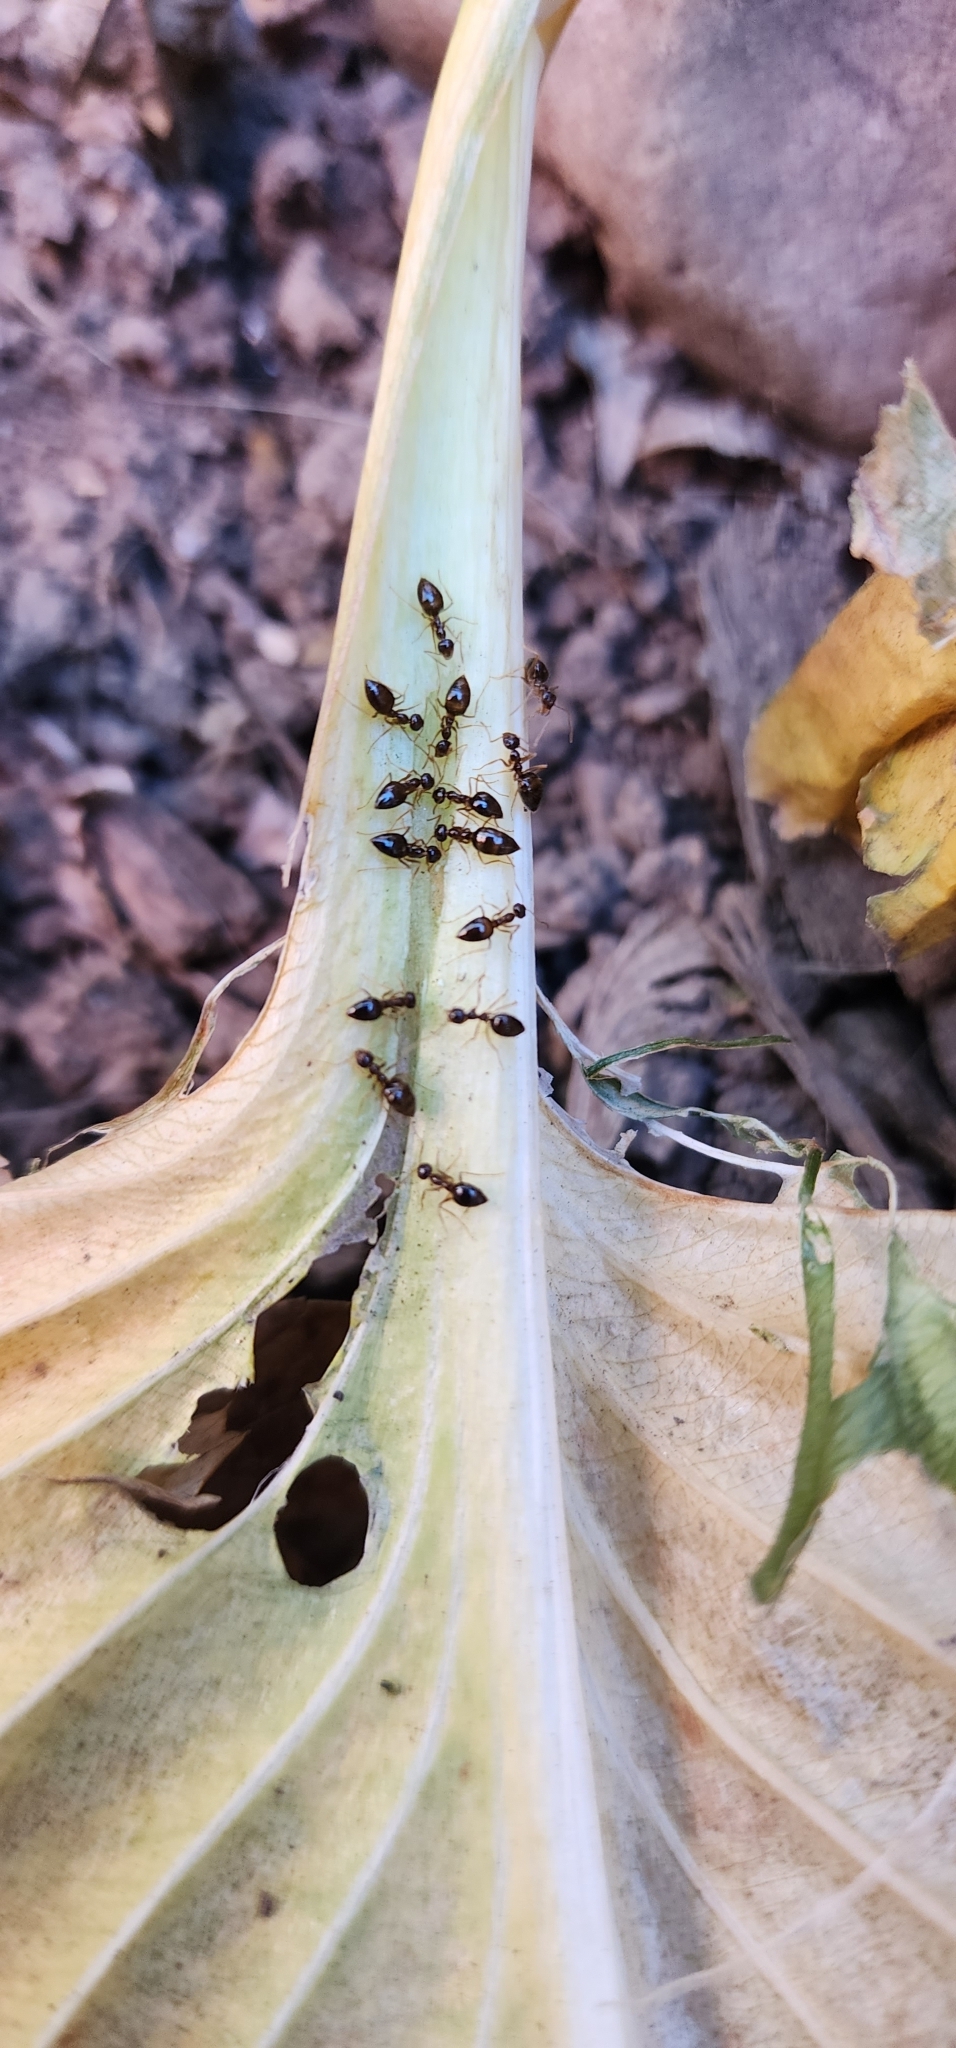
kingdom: Animalia
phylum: Arthropoda
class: Insecta
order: Hymenoptera
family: Formicidae
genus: Prenolepis
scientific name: Prenolepis imparis
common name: Small honey ant
